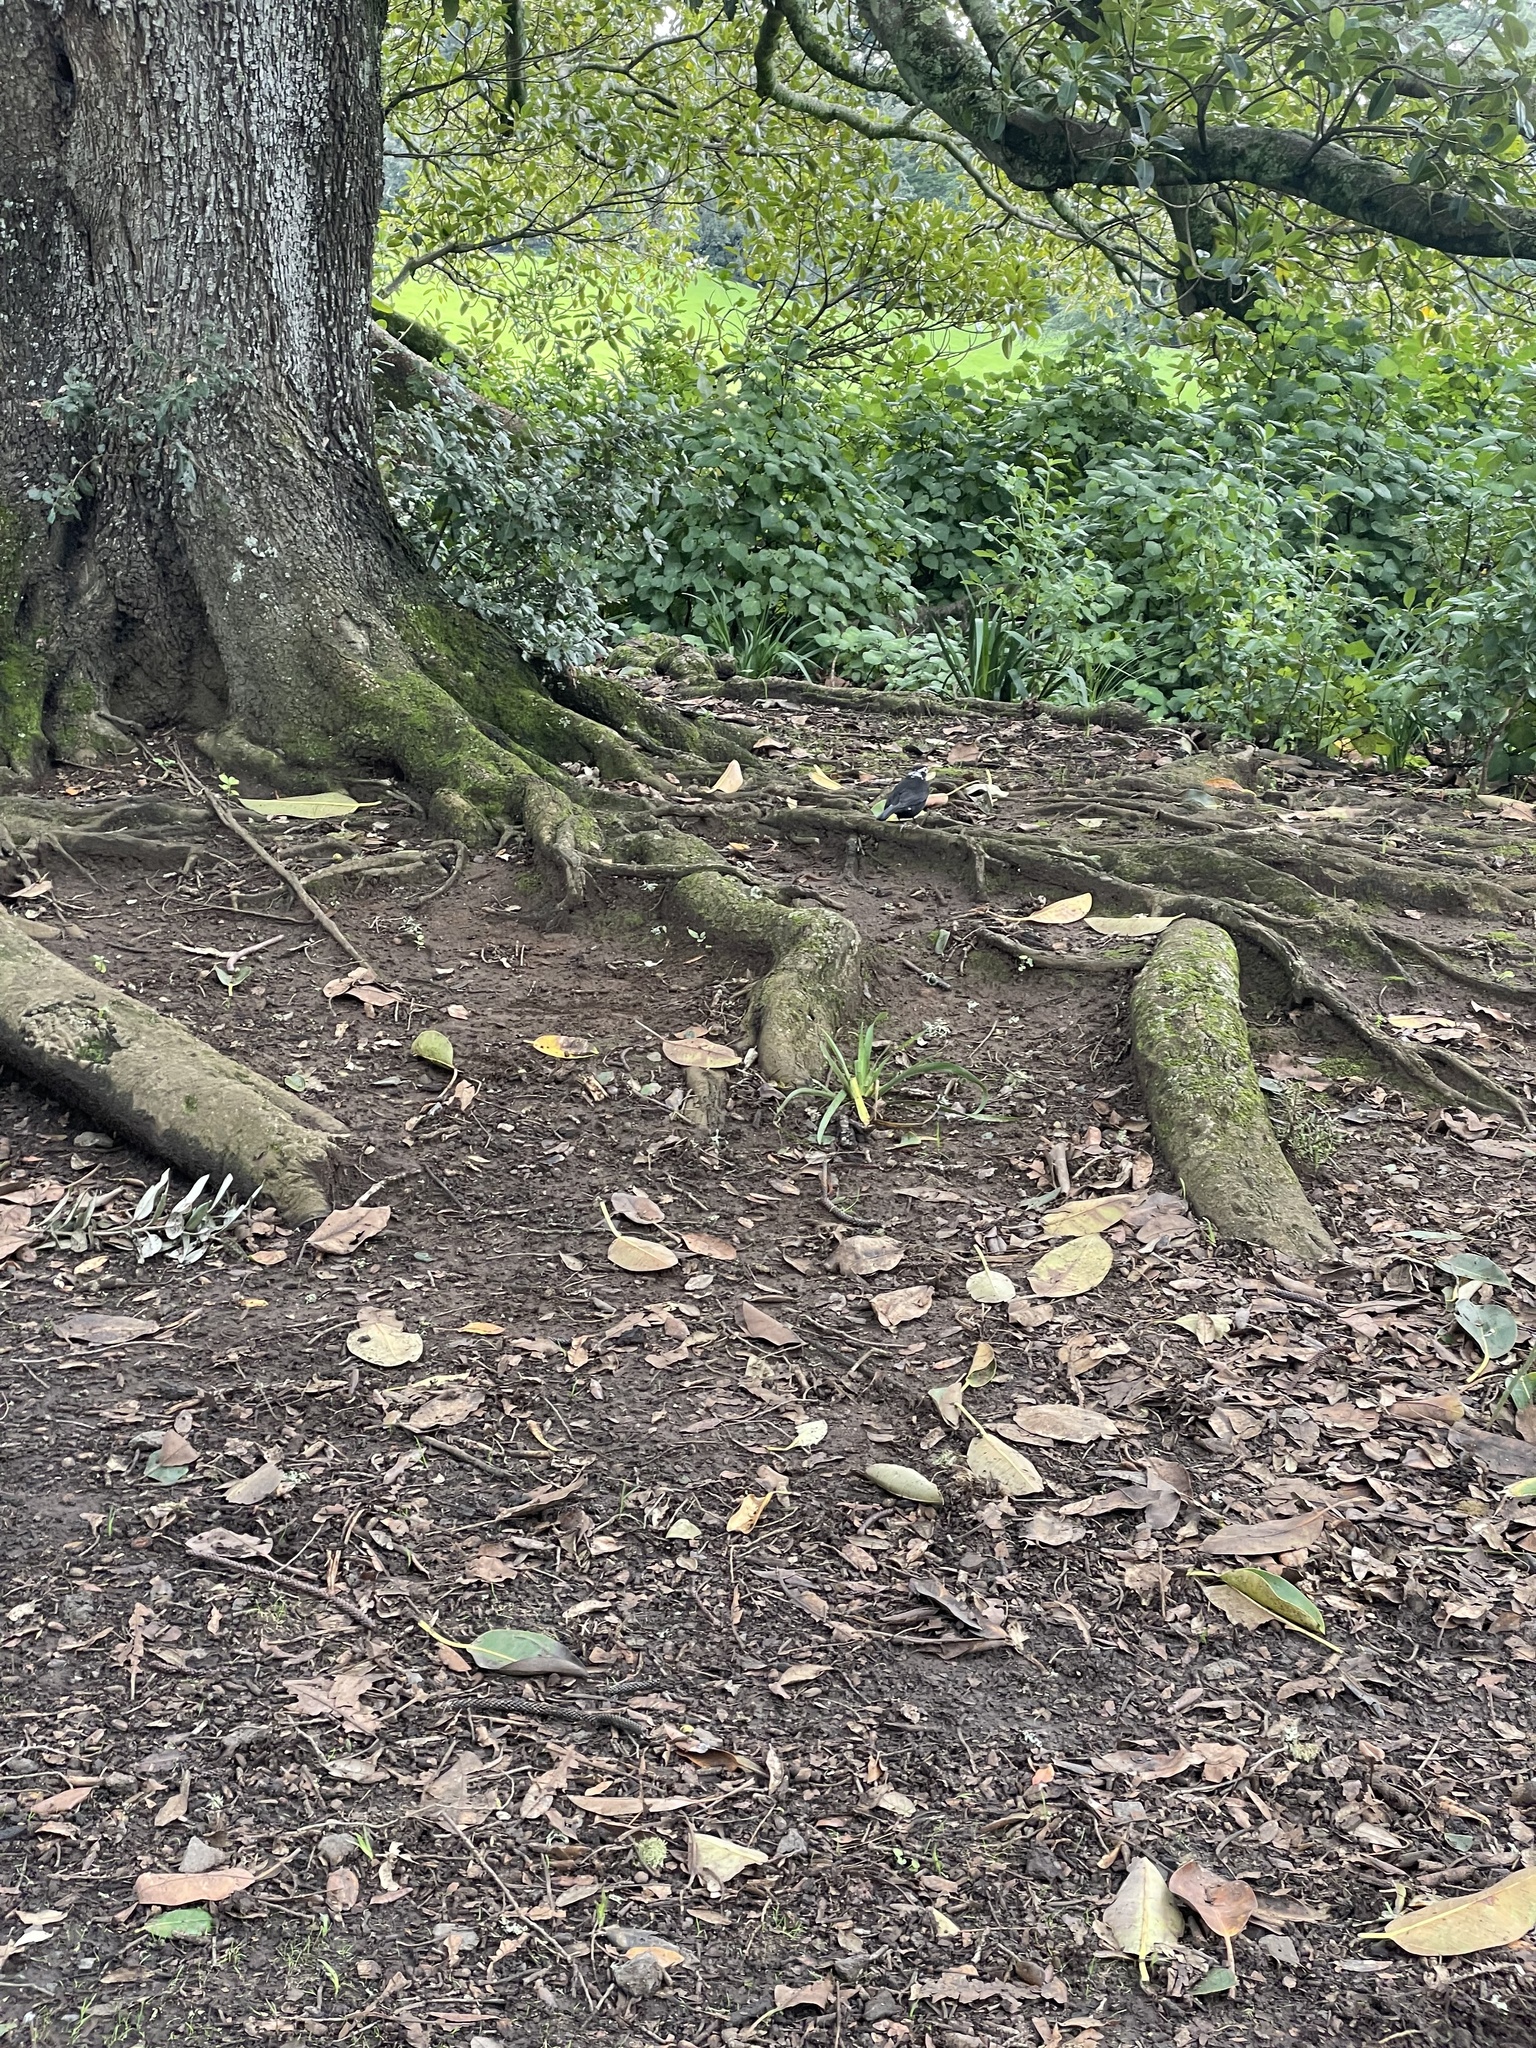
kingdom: Animalia
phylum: Chordata
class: Aves
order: Passeriformes
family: Turdidae
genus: Turdus
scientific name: Turdus merula
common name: Common blackbird
